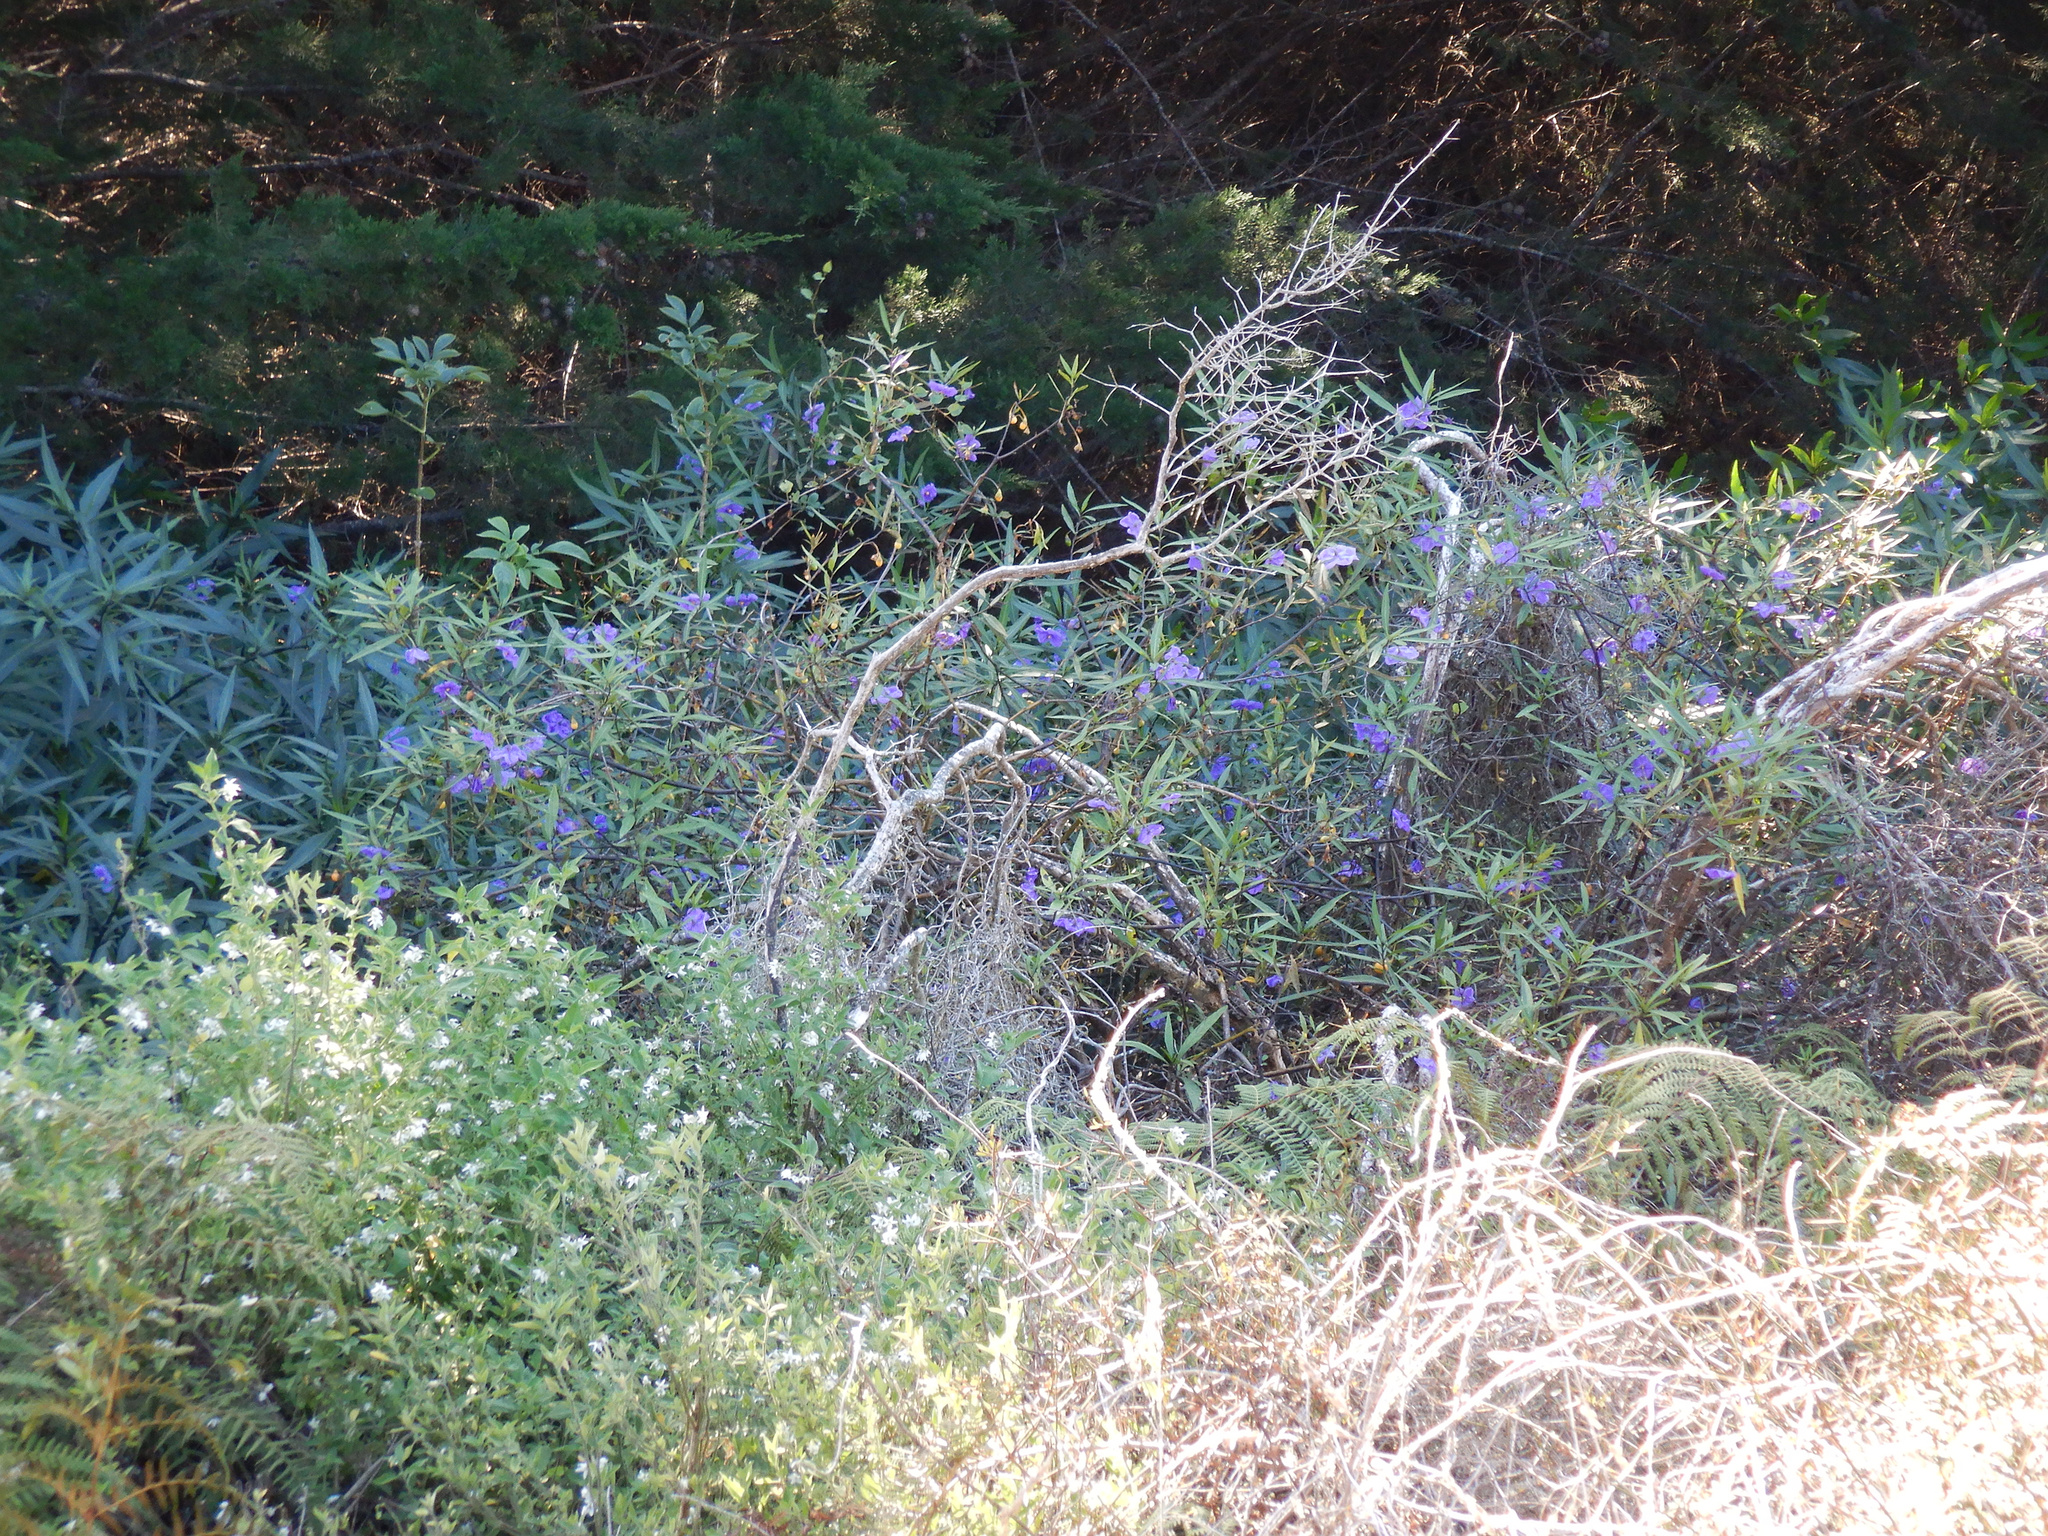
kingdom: Plantae
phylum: Tracheophyta
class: Magnoliopsida
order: Solanales
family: Solanaceae
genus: Solanum
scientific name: Solanum laciniatum
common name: Kangaroo-apple
